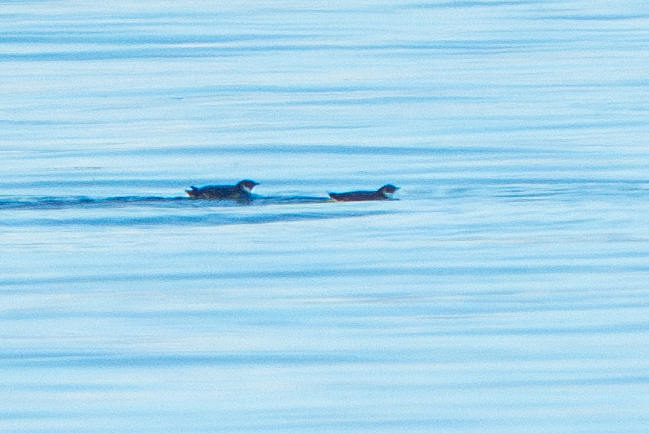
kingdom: Animalia
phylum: Chordata
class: Aves
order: Charadriiformes
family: Alcidae
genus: Synthliboramphus
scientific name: Synthliboramphus antiquus
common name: Ancient murrelet
